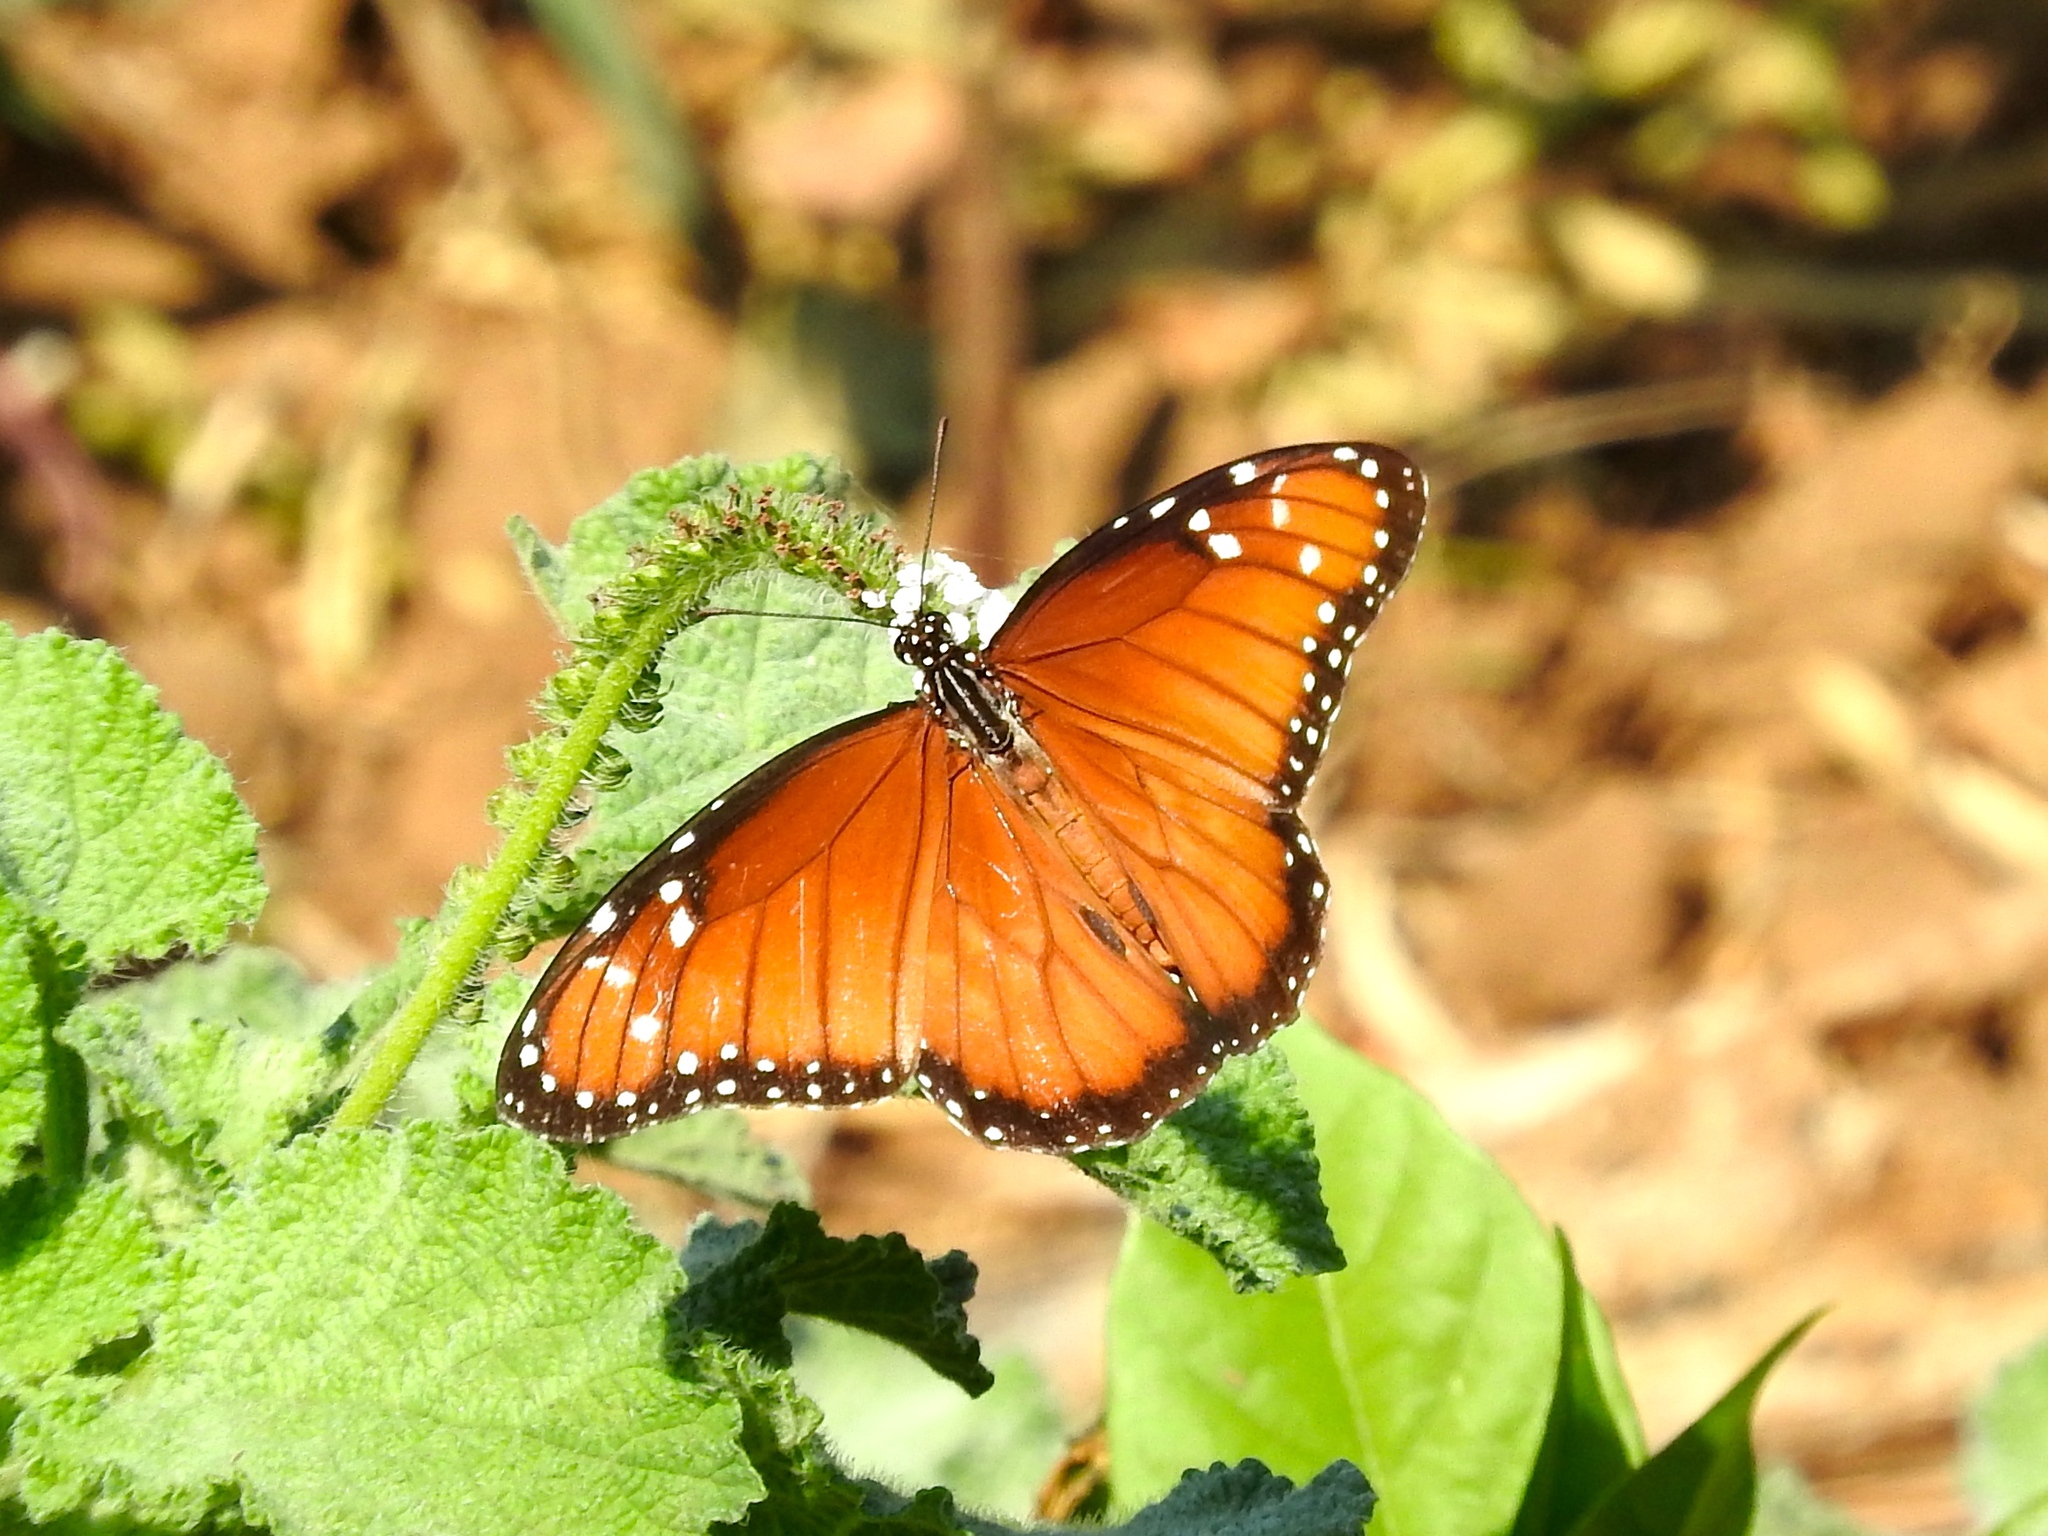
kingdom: Animalia
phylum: Arthropoda
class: Insecta
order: Lepidoptera
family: Nymphalidae
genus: Danaus
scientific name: Danaus eresimus
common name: Soldier
